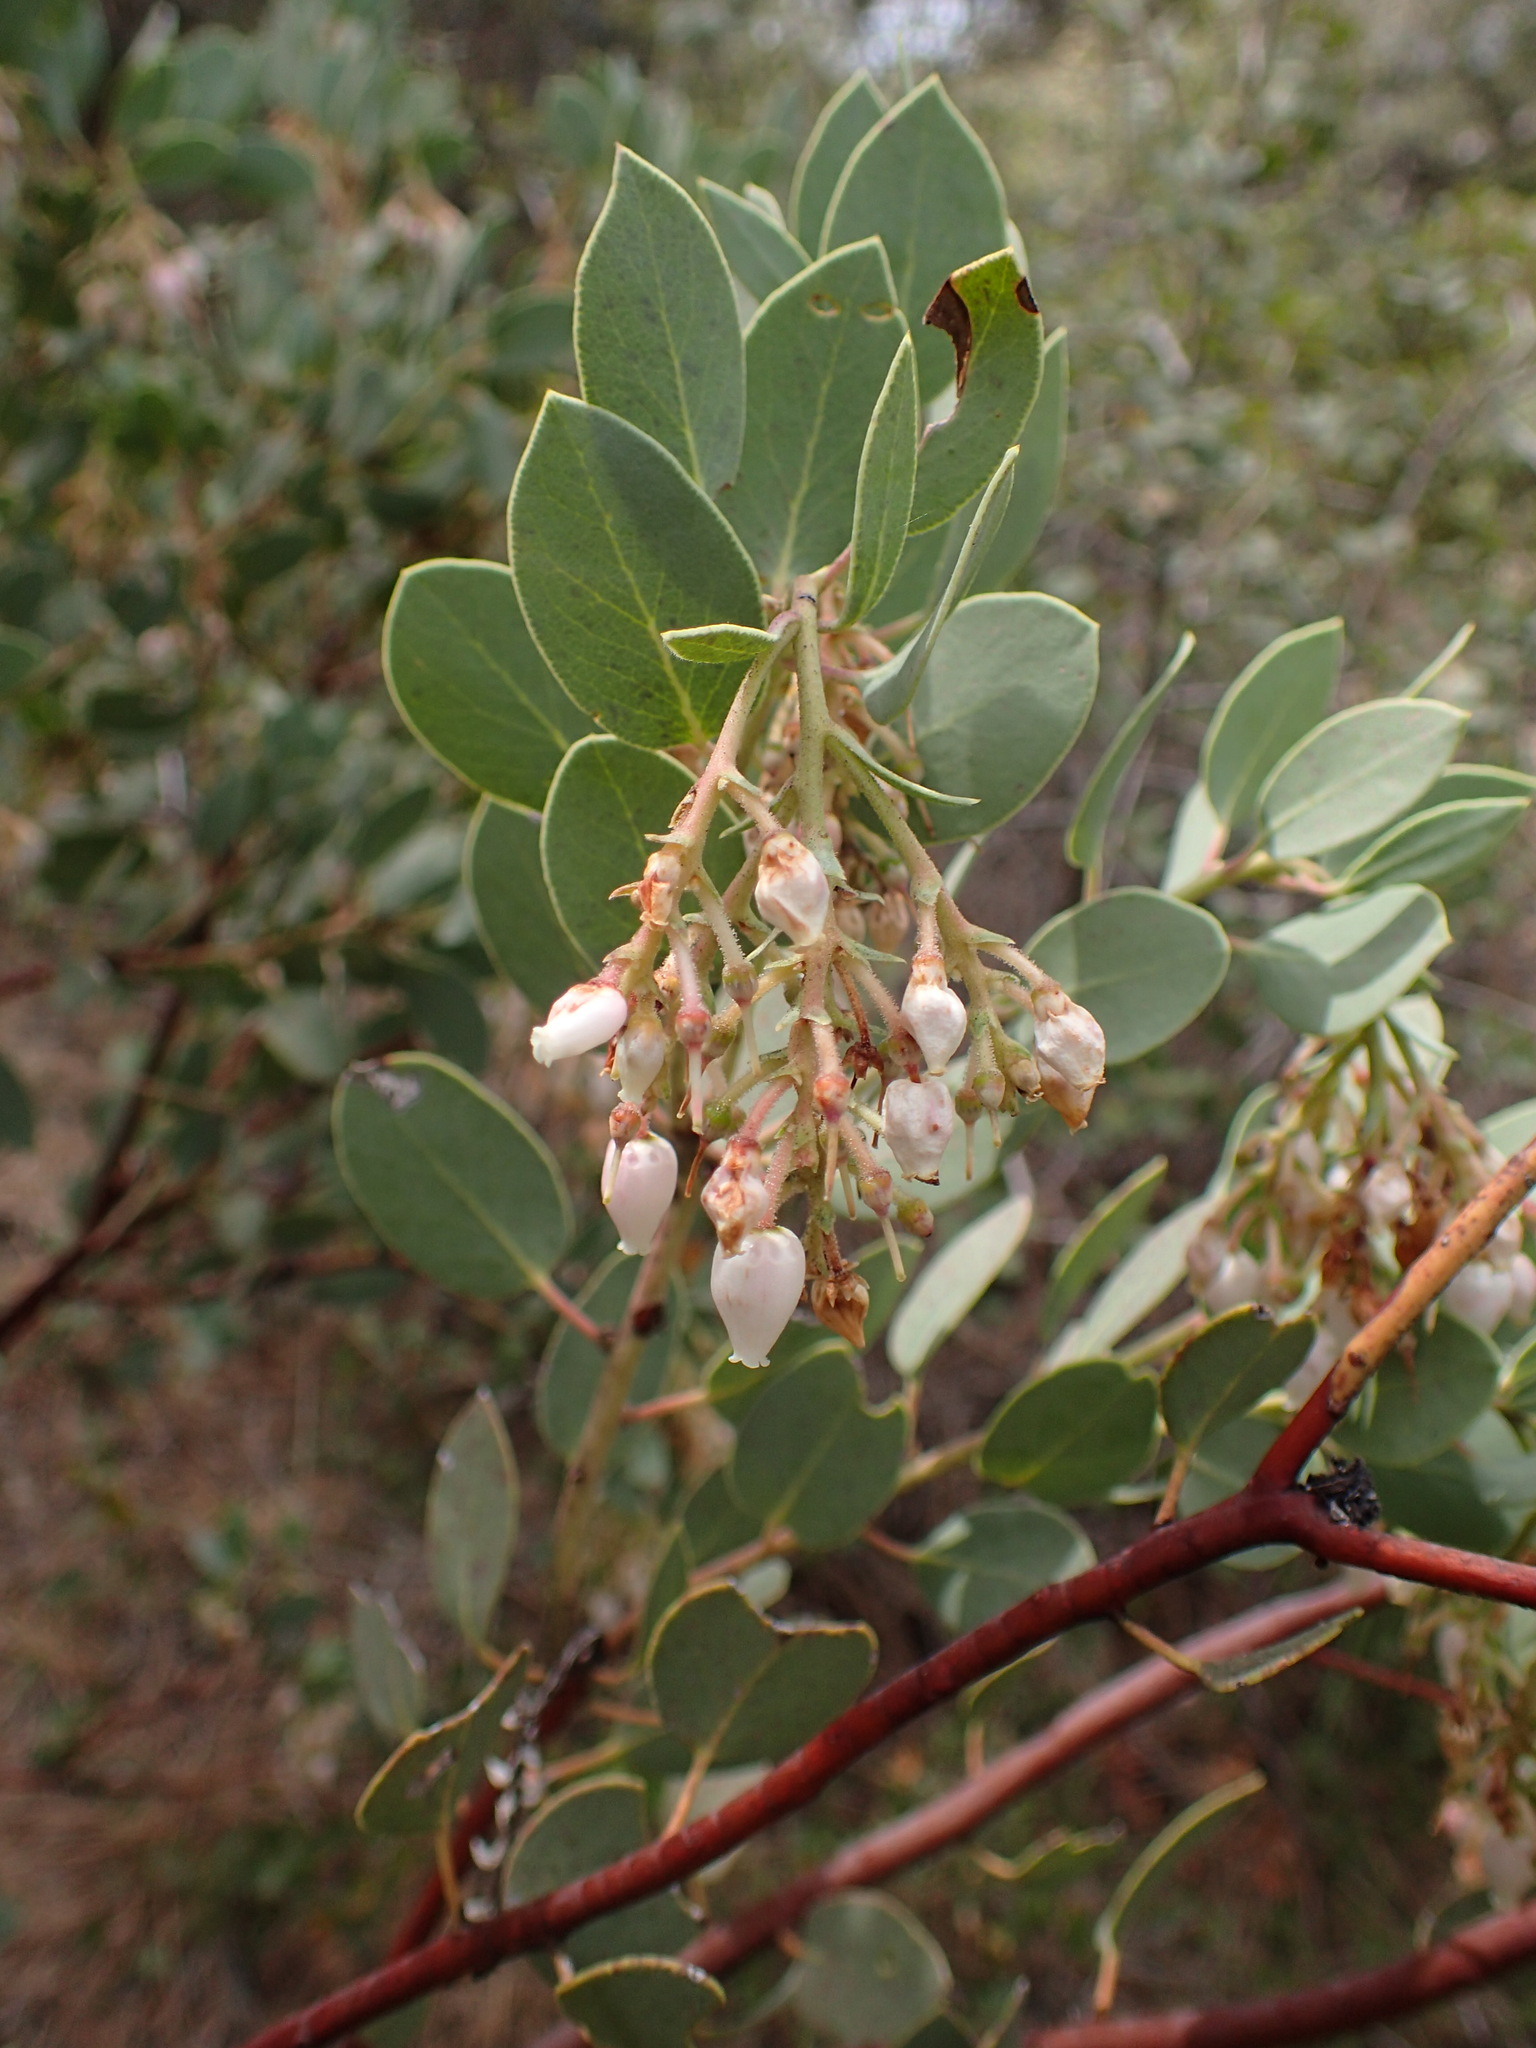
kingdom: Plantae
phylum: Tracheophyta
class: Magnoliopsida
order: Ericales
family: Ericaceae
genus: Arctostaphylos
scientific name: Arctostaphylos glauca
